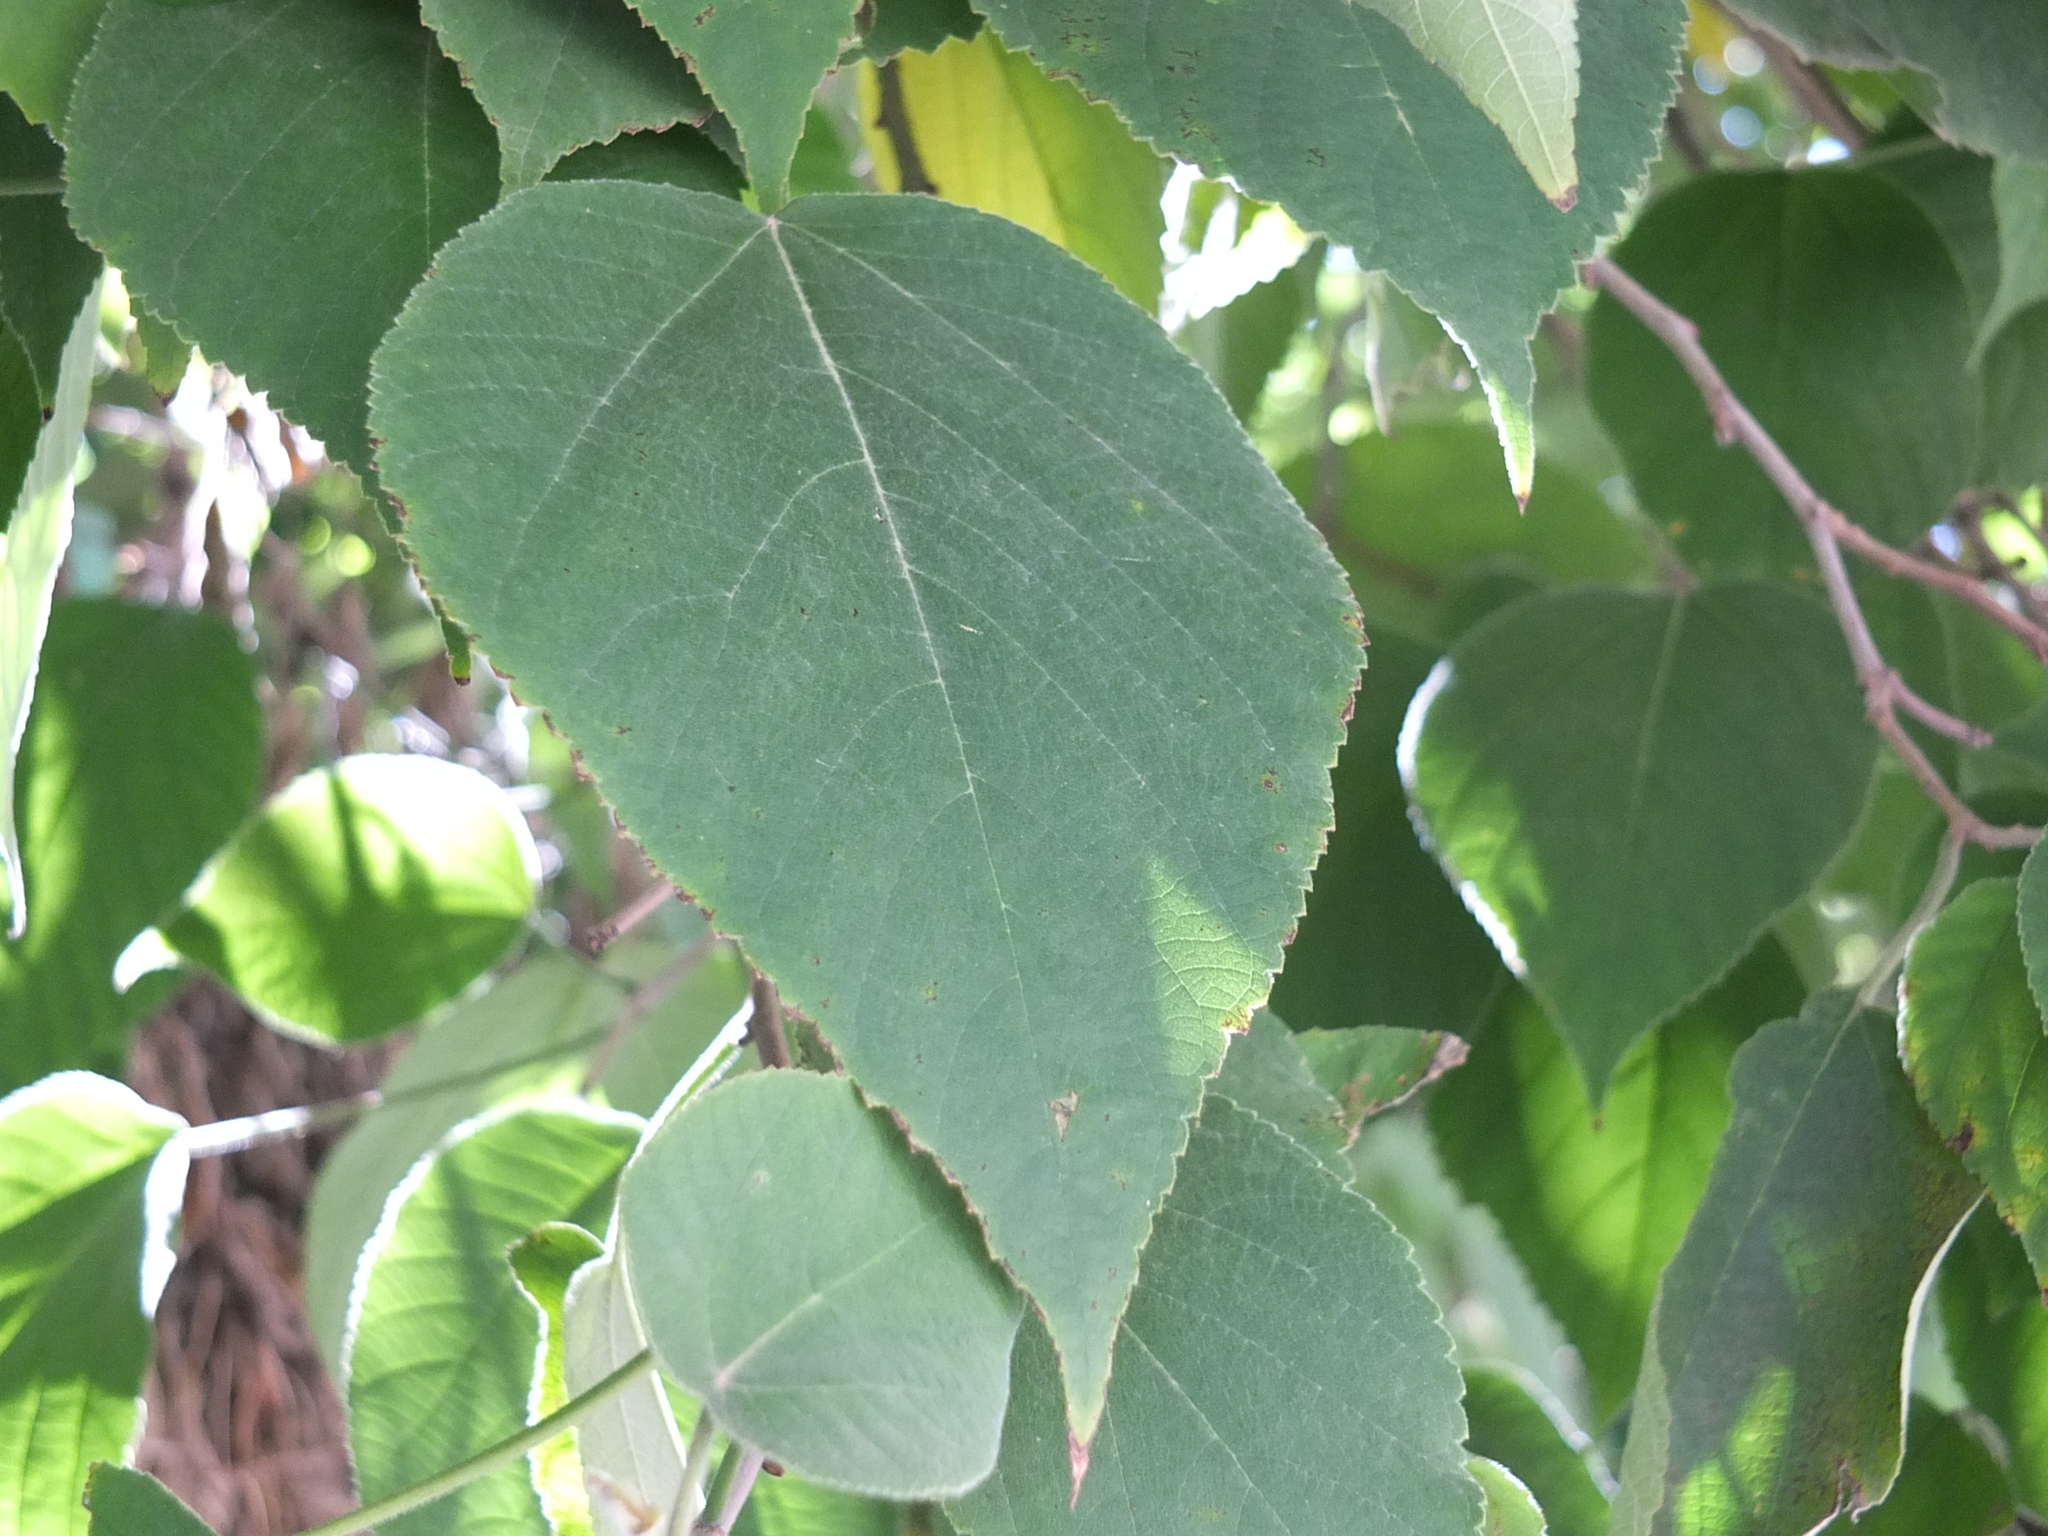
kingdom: Plantae
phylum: Tracheophyta
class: Magnoliopsida
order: Rosales
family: Moraceae
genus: Broussonetia
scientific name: Broussonetia papyrifera
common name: Paper mulberry
